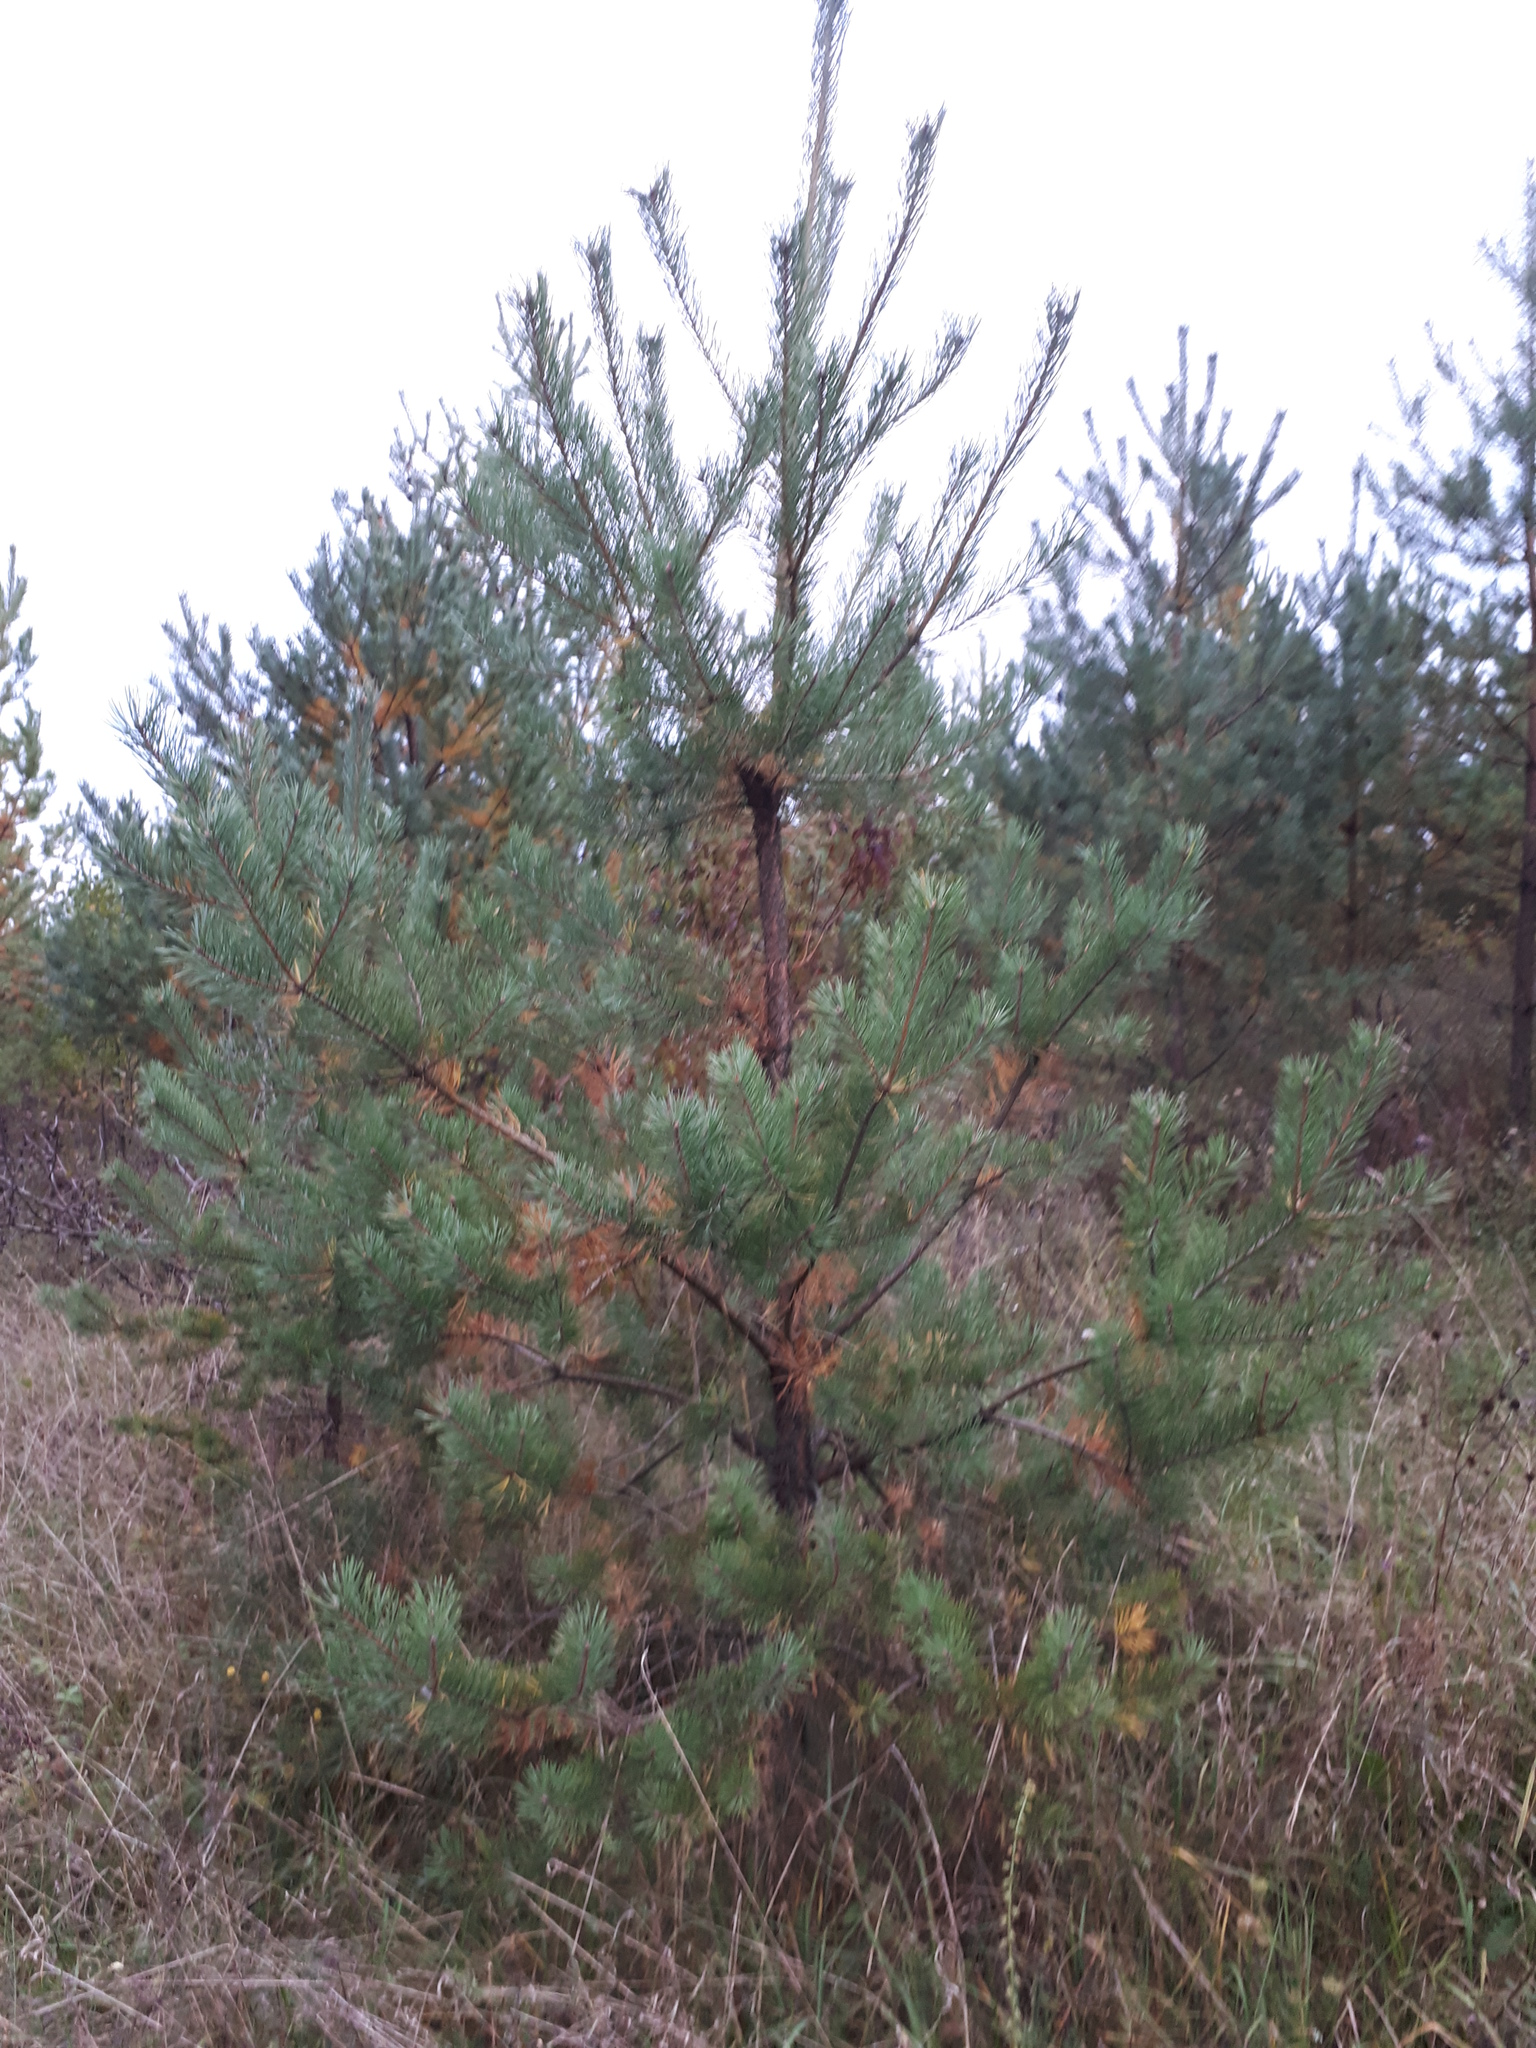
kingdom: Plantae
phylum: Tracheophyta
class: Pinopsida
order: Pinales
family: Pinaceae
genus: Pinus
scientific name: Pinus sylvestris
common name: Scots pine
